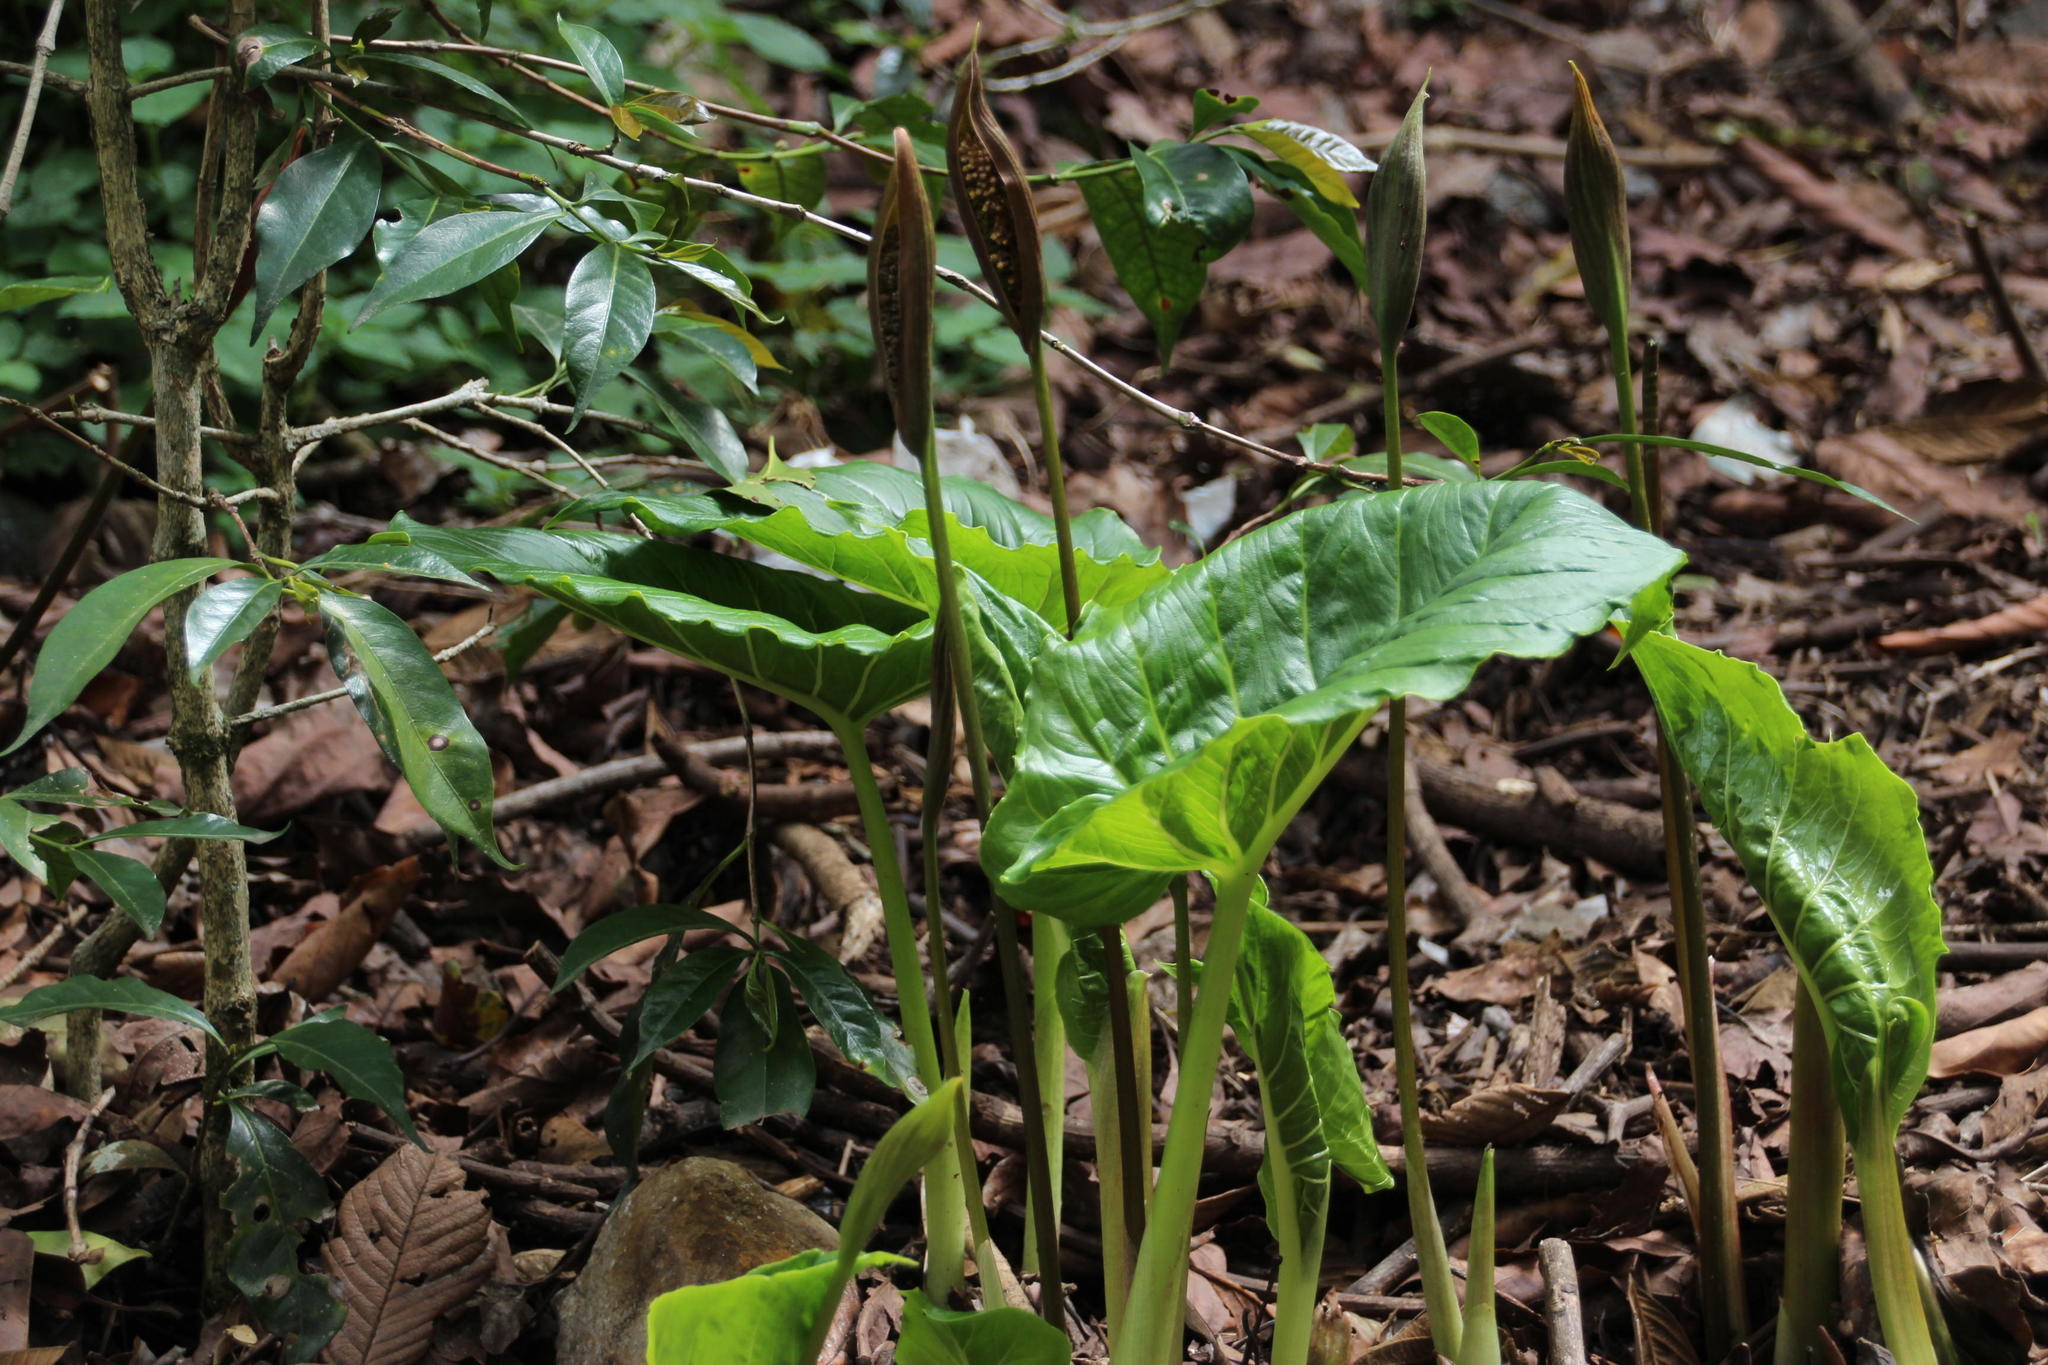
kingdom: Plantae
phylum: Tracheophyta
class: Liliopsida
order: Alismatales
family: Araceae
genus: Spathantheum
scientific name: Spathantheum orbignyanum
